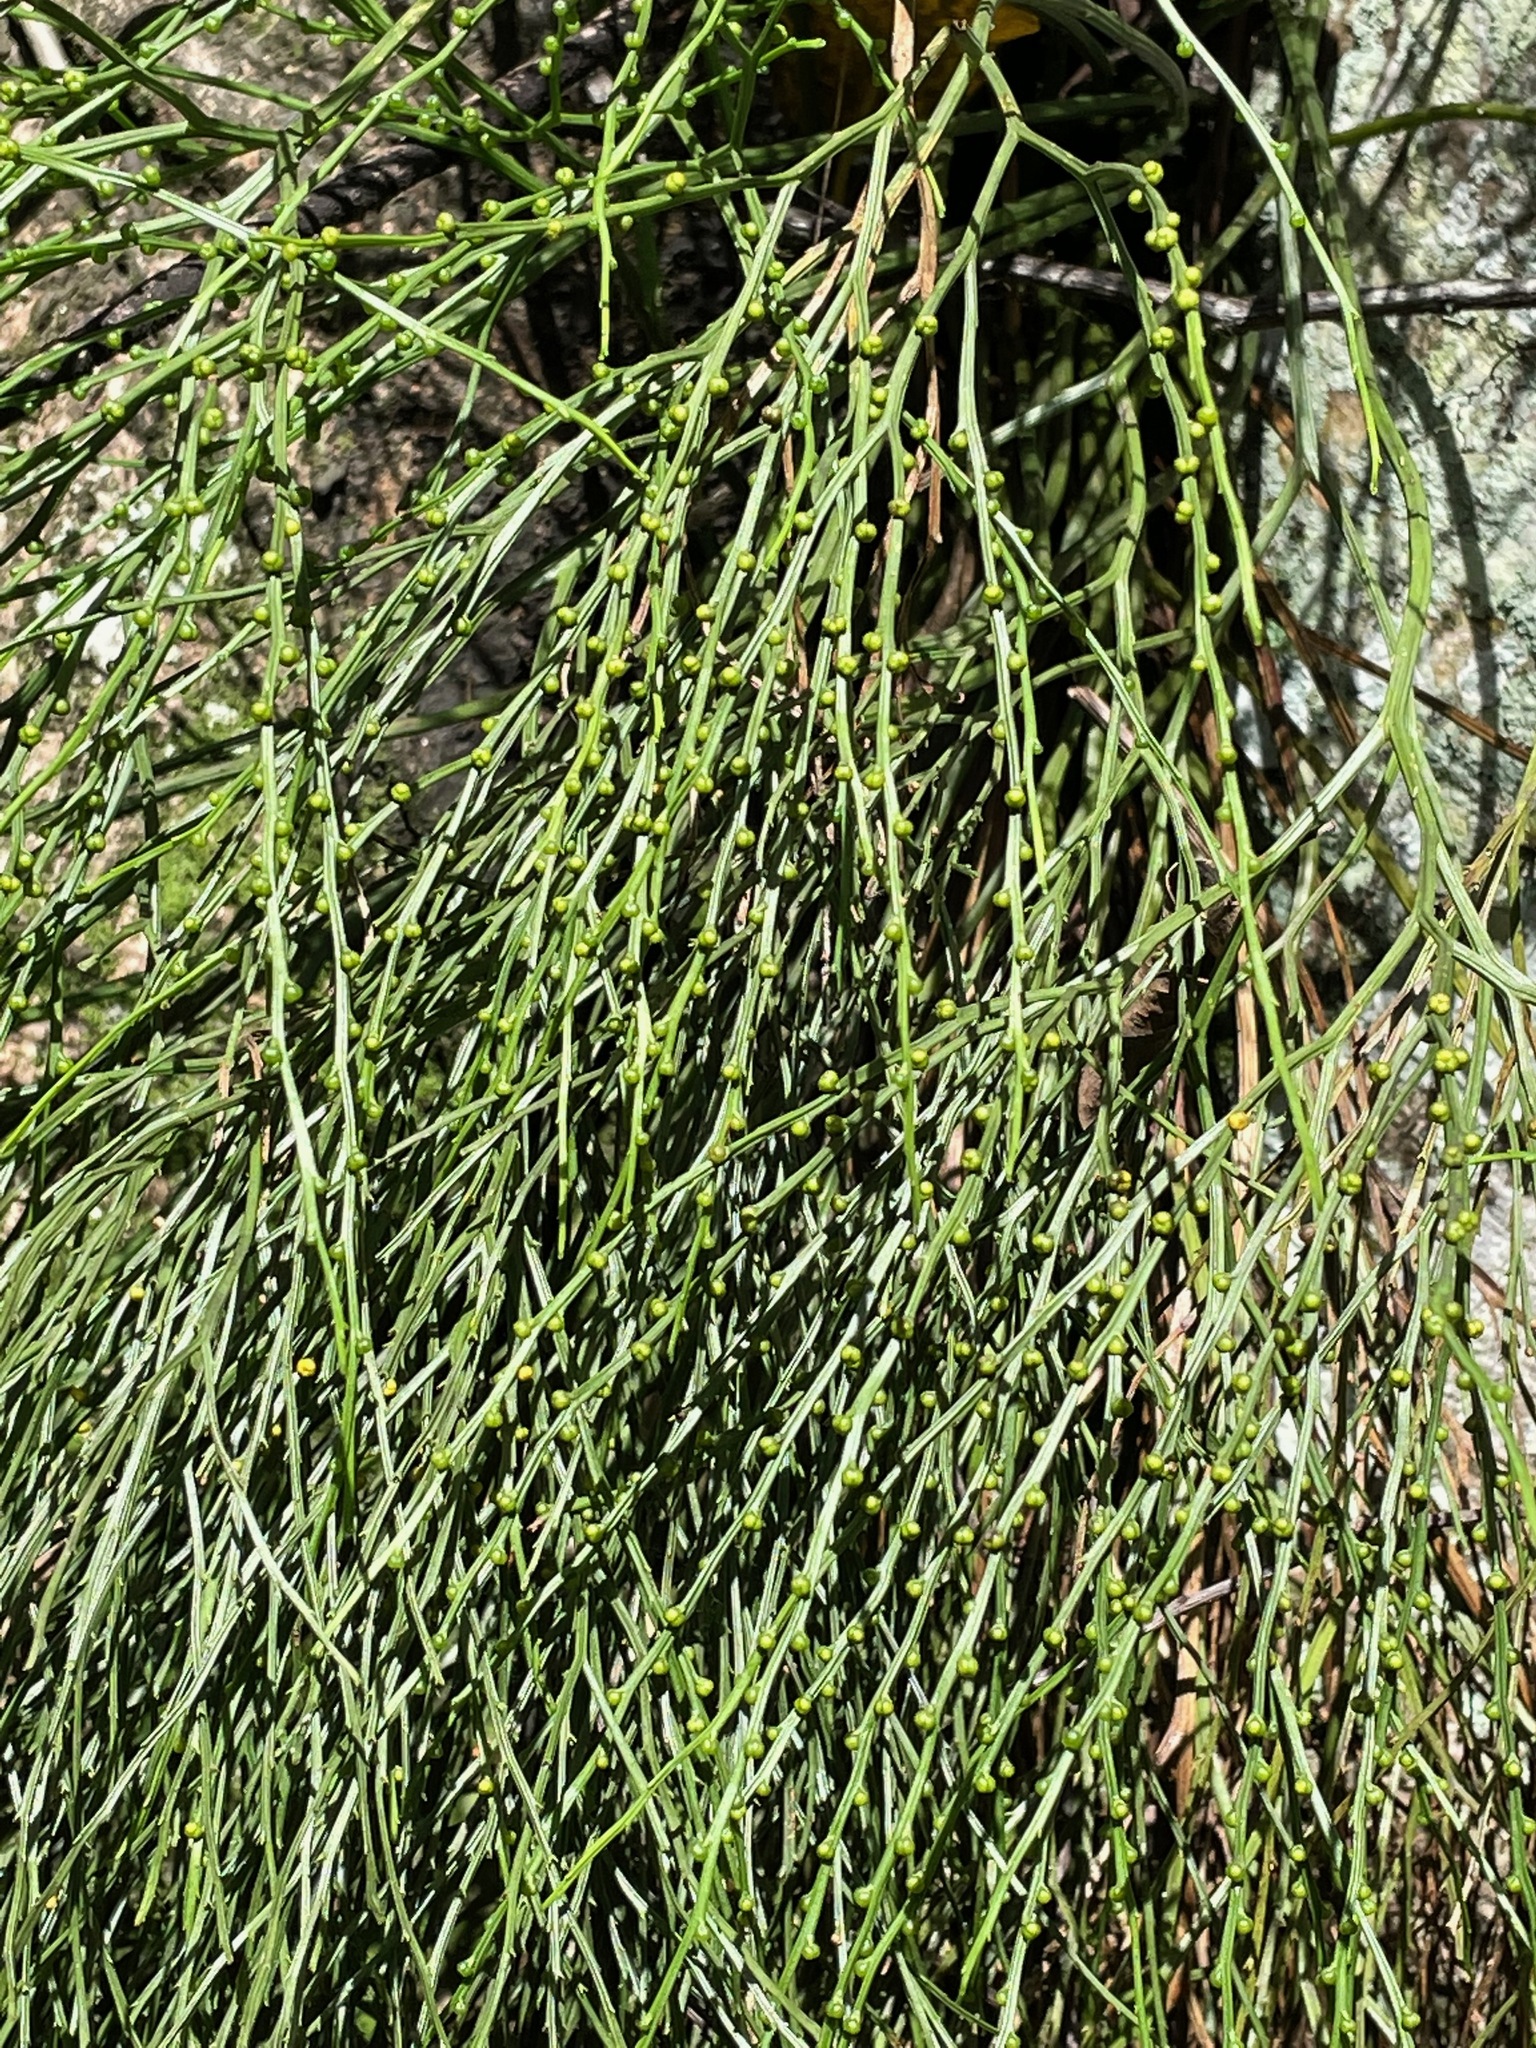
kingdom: Plantae
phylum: Tracheophyta
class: Polypodiopsida
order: Psilotales
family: Psilotaceae
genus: Psilotum
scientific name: Psilotum nudum
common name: Skeleton fork fern
